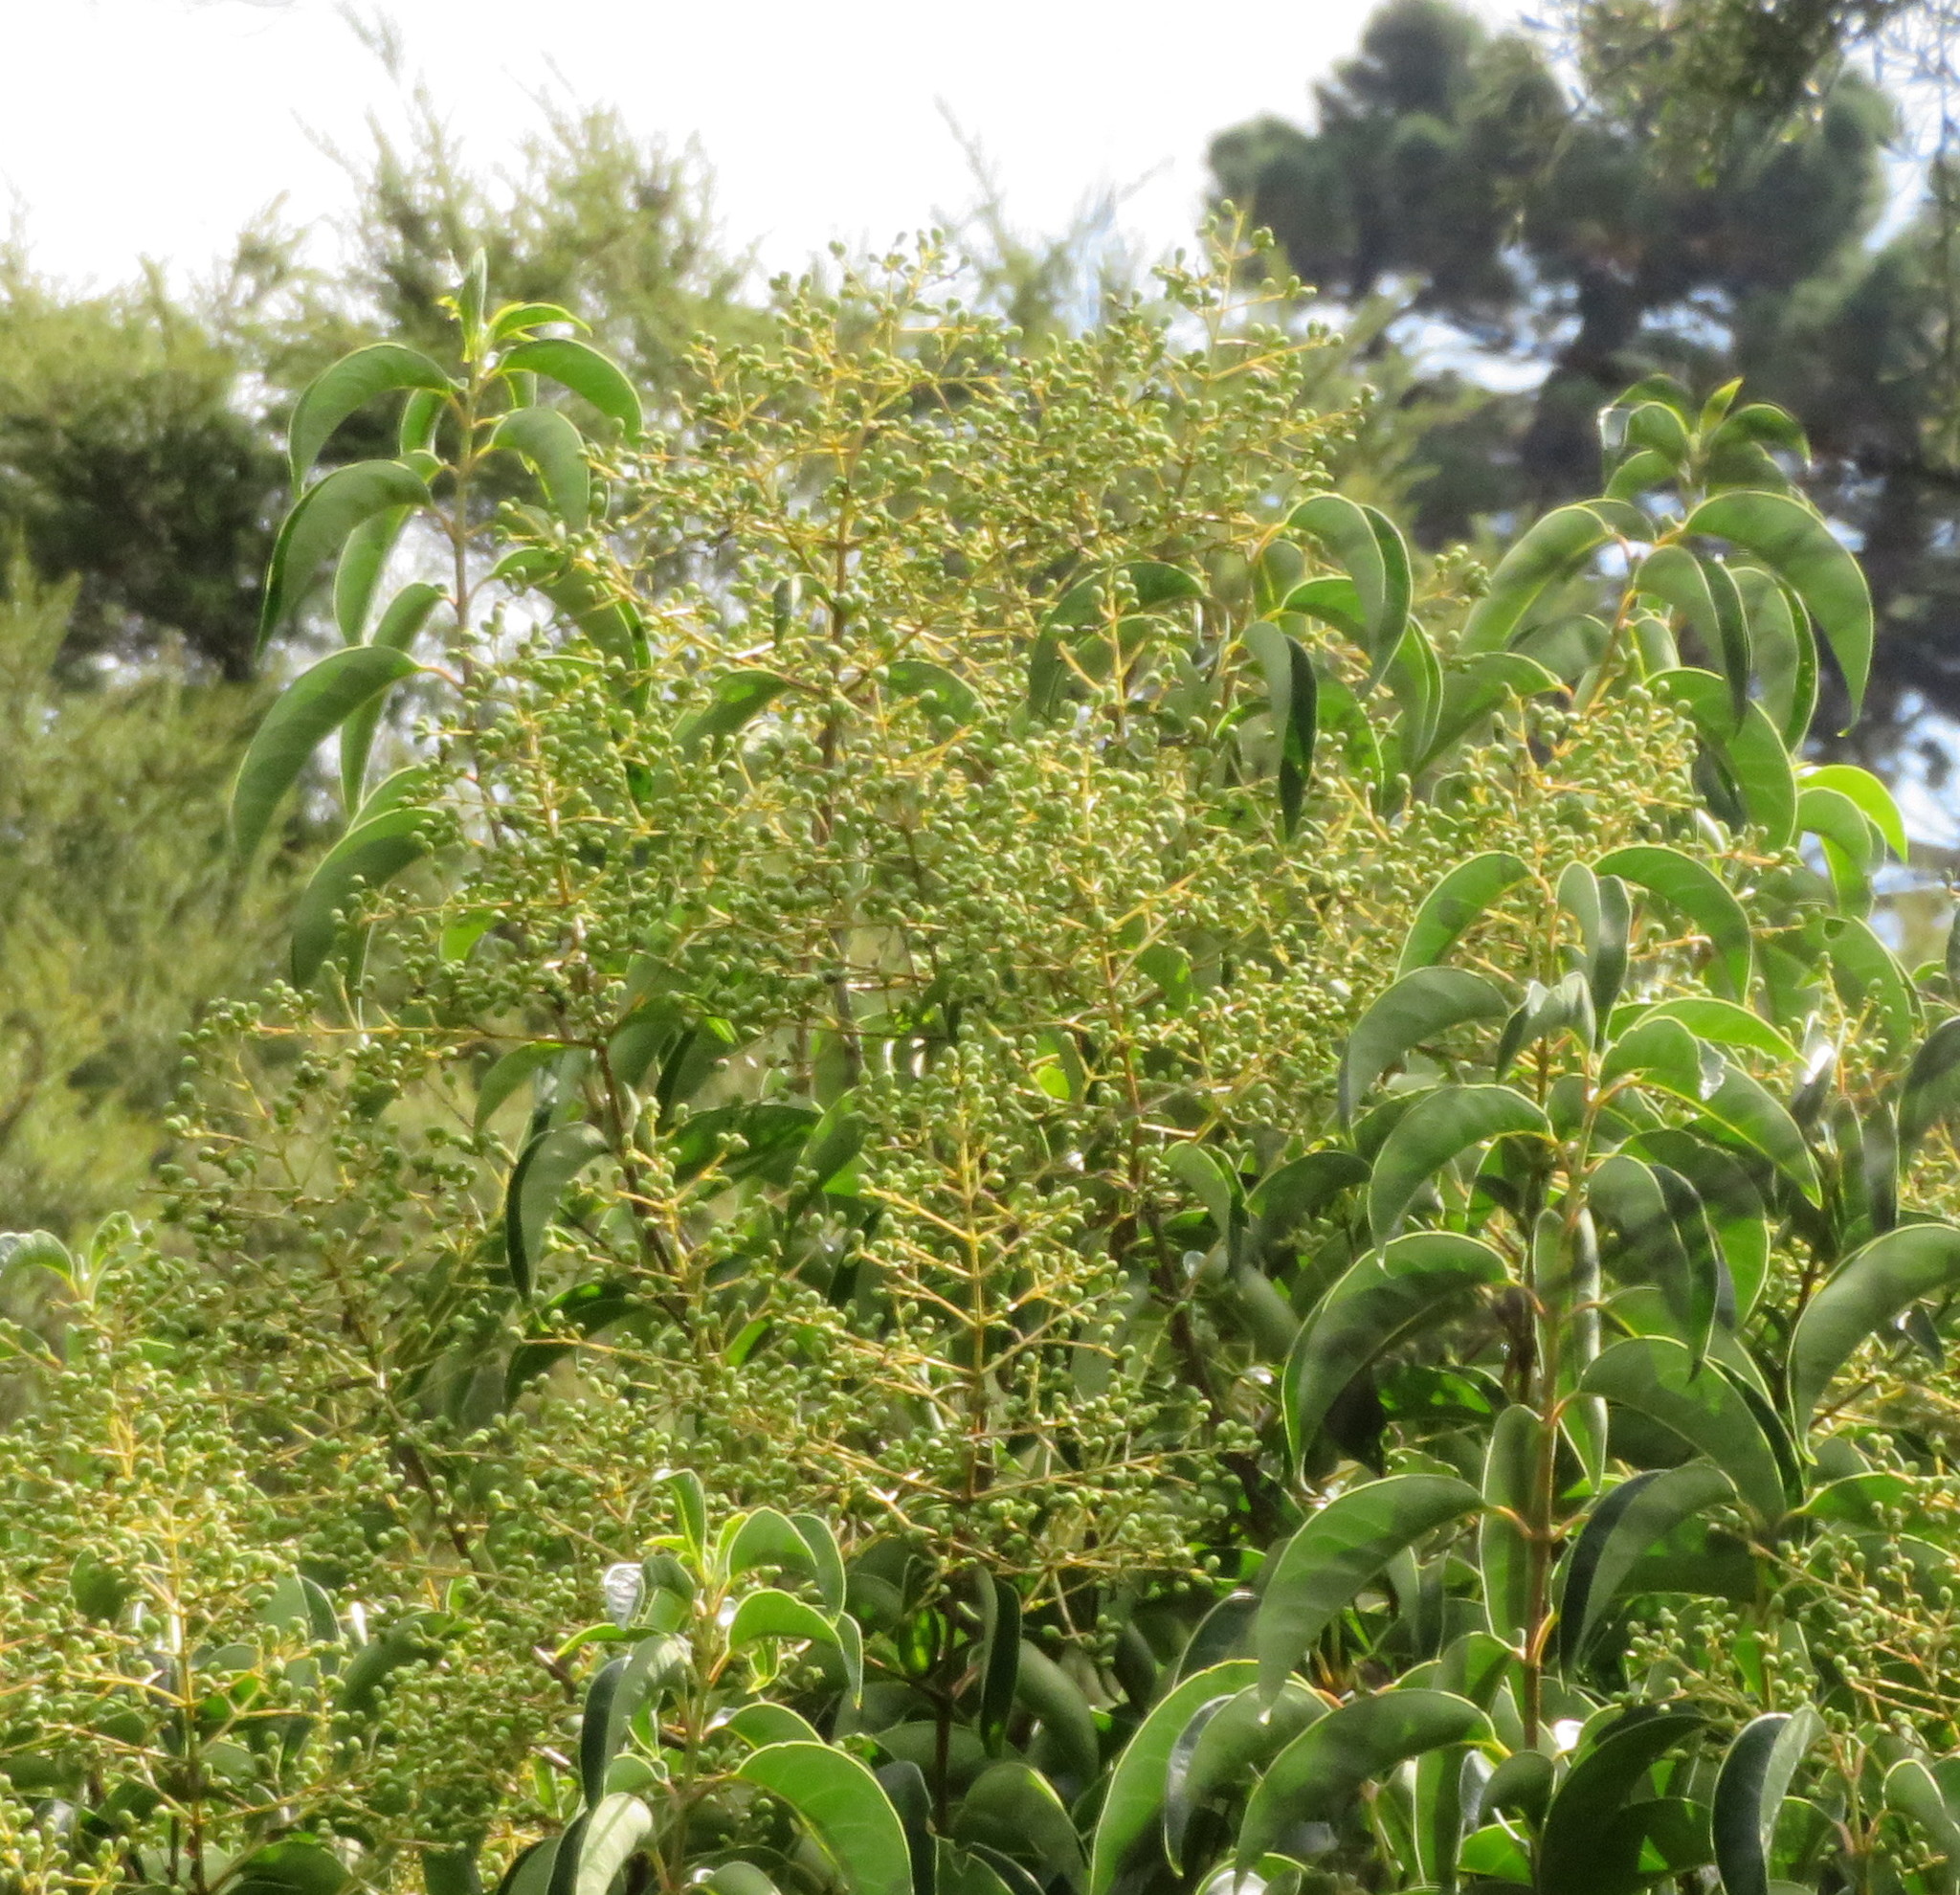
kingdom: Plantae
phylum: Tracheophyta
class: Magnoliopsida
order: Lamiales
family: Oleaceae
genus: Ligustrum
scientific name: Ligustrum lucidum
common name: Glossy privet
